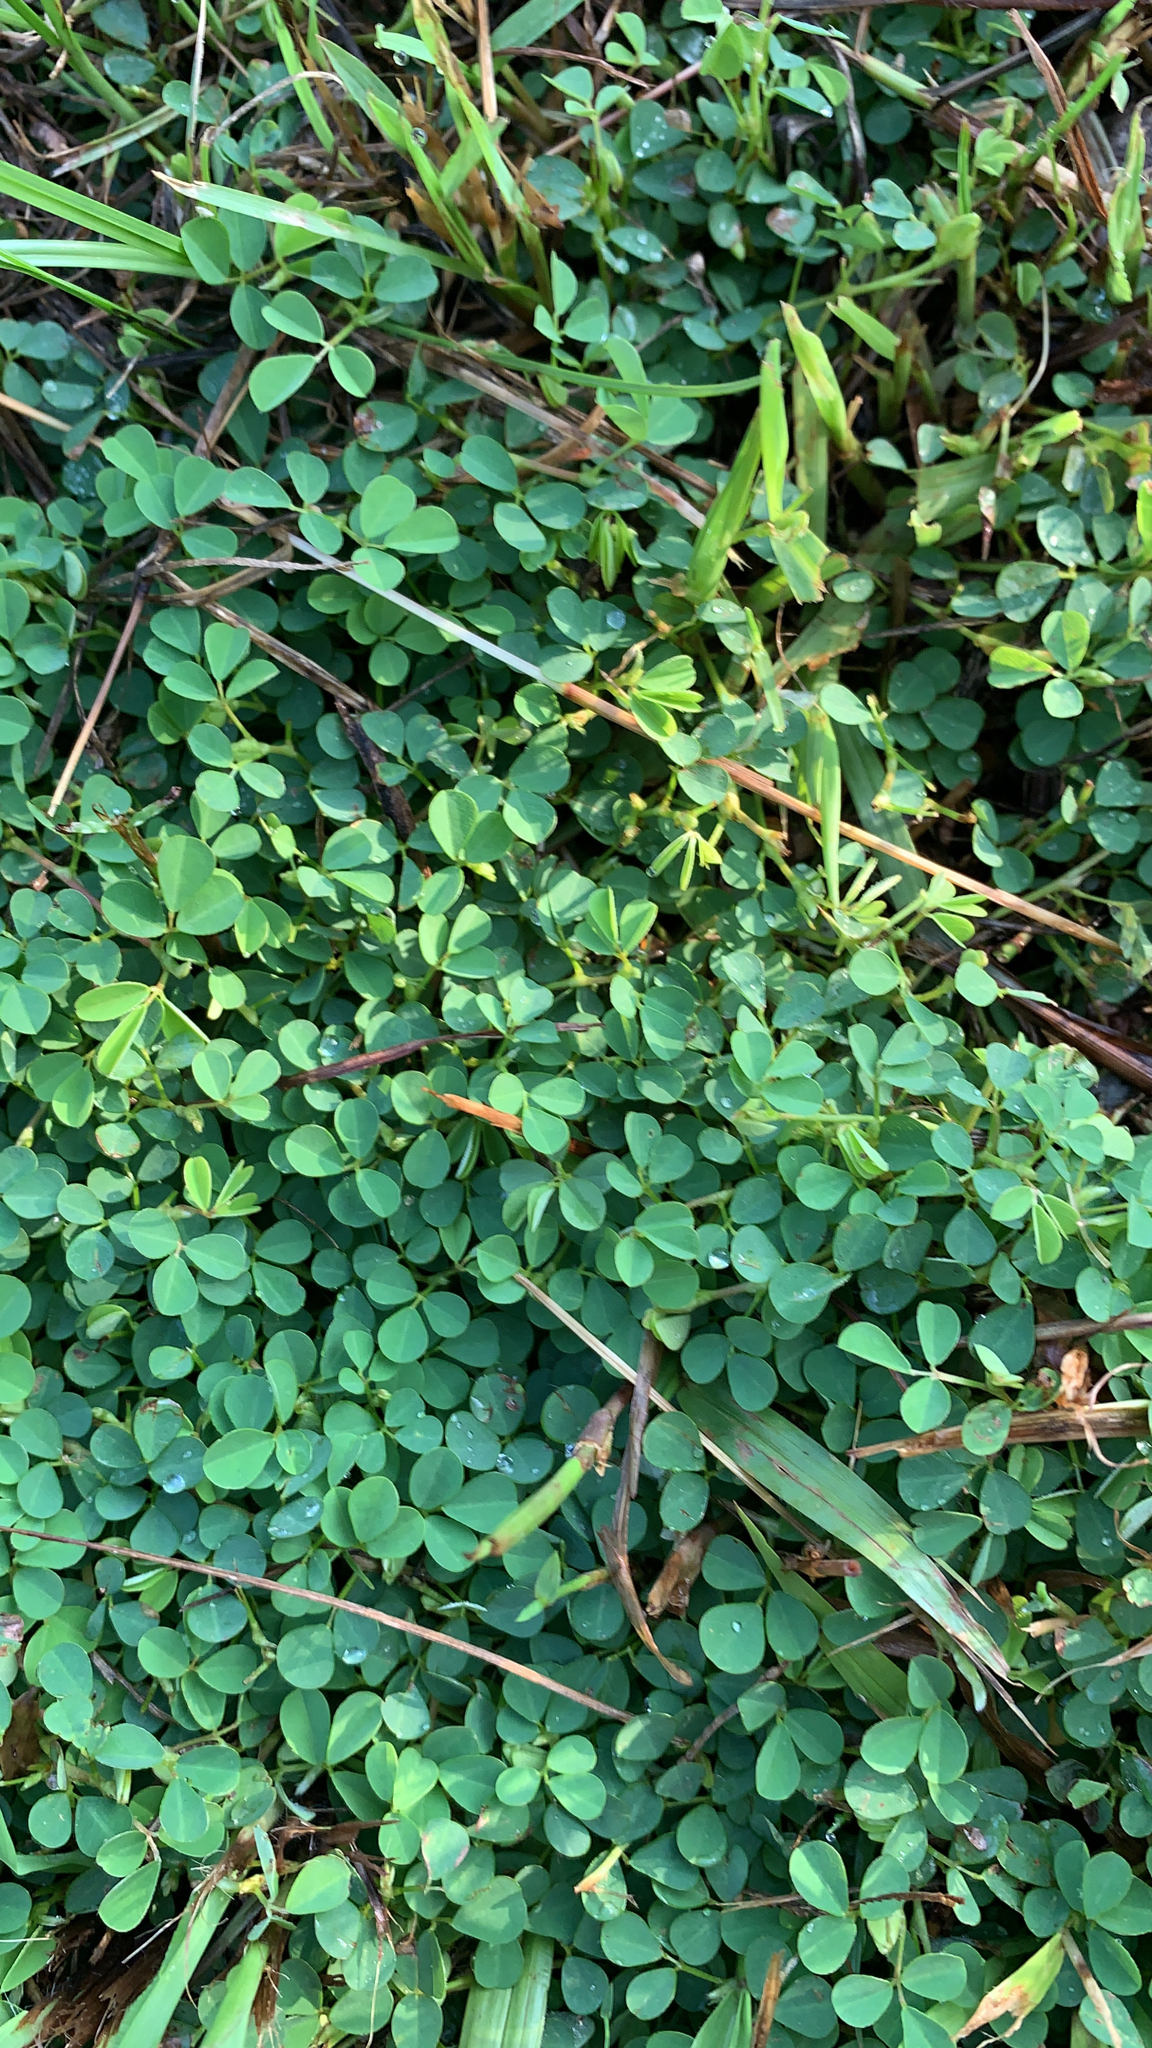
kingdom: Plantae
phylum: Tracheophyta
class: Magnoliopsida
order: Fabales
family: Fabaceae
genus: Grona
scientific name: Grona triflora
